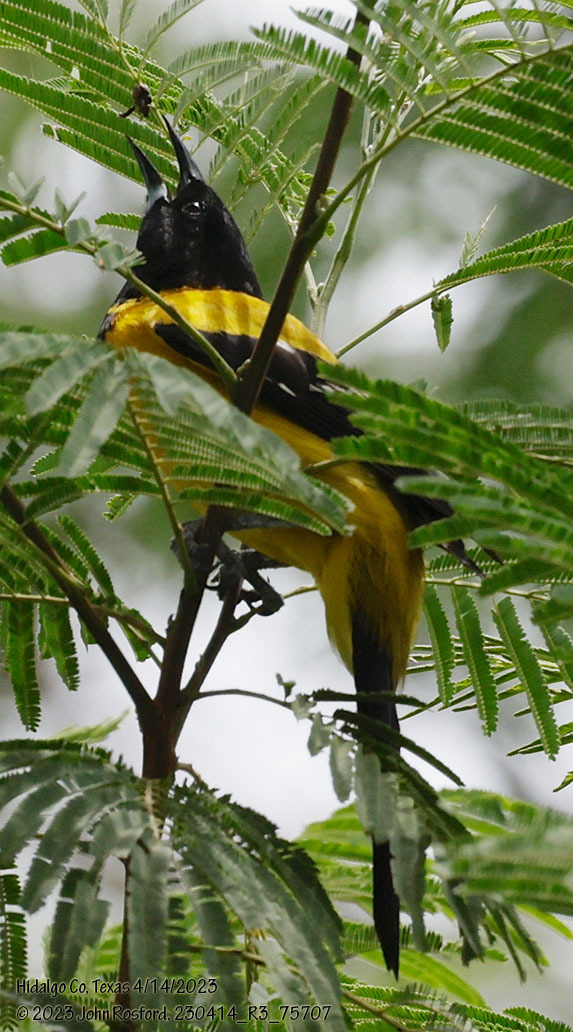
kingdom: Animalia
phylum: Chordata
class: Aves
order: Passeriformes
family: Icteridae
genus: Icterus
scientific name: Icterus graduacauda
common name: Audubon's oriole
